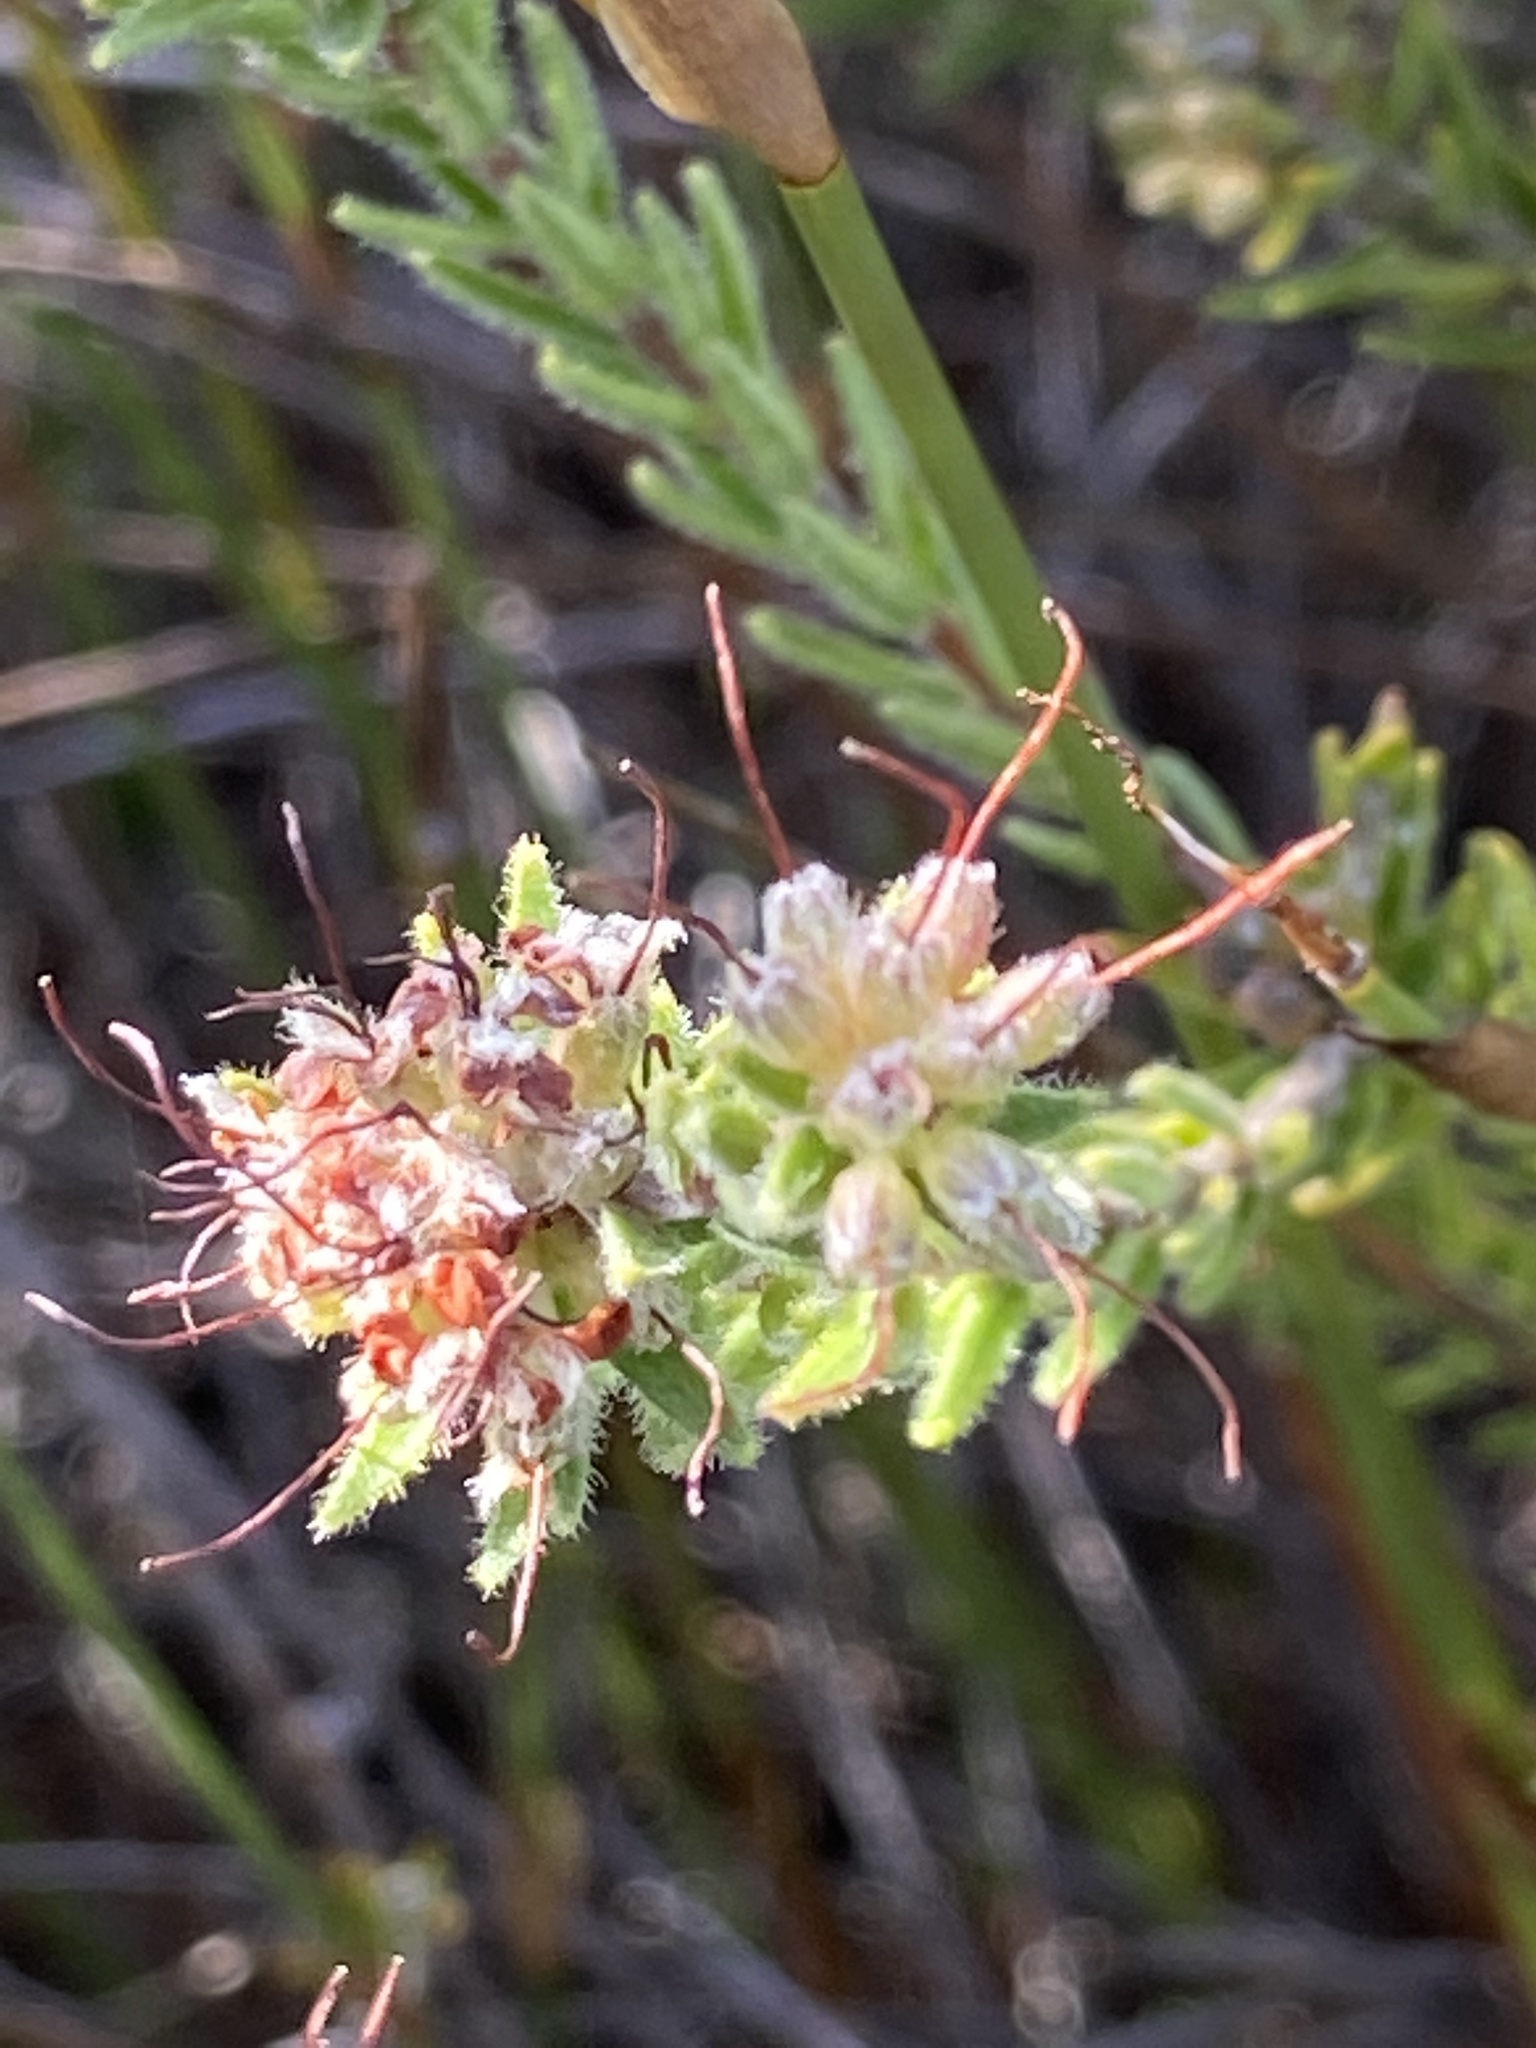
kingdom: Plantae
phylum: Tracheophyta
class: Magnoliopsida
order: Sapindales
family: Rutaceae
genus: Macrostylis
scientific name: Macrostylis villosa
